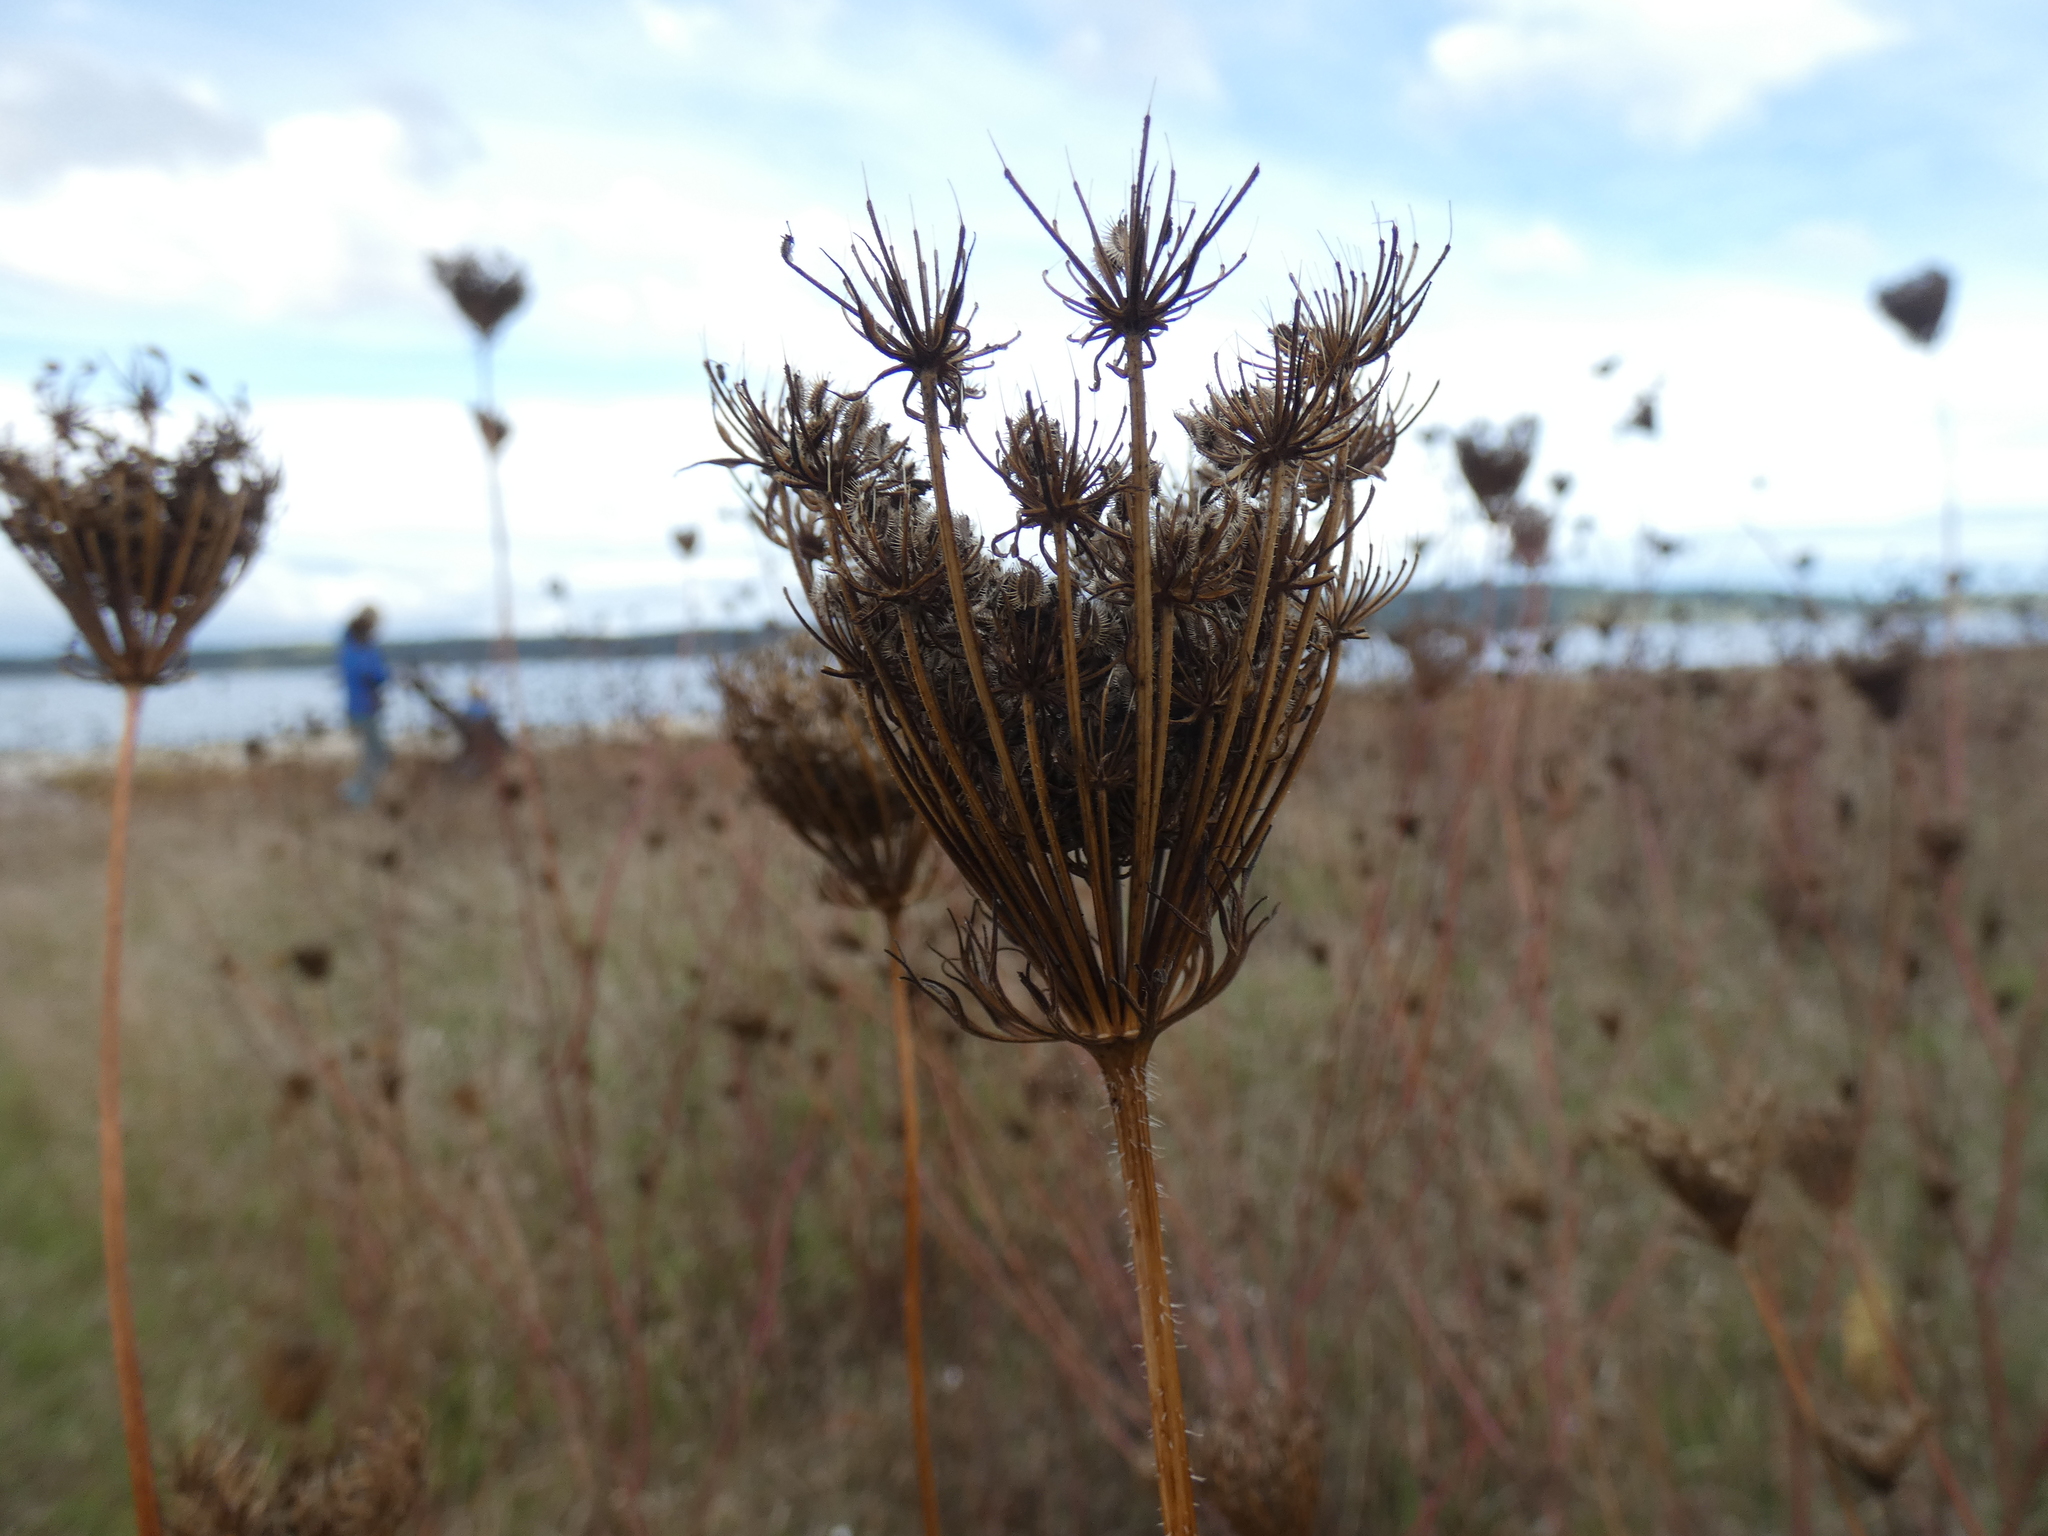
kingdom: Plantae
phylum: Tracheophyta
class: Magnoliopsida
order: Apiales
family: Apiaceae
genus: Daucus
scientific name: Daucus carota
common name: Wild carrot
